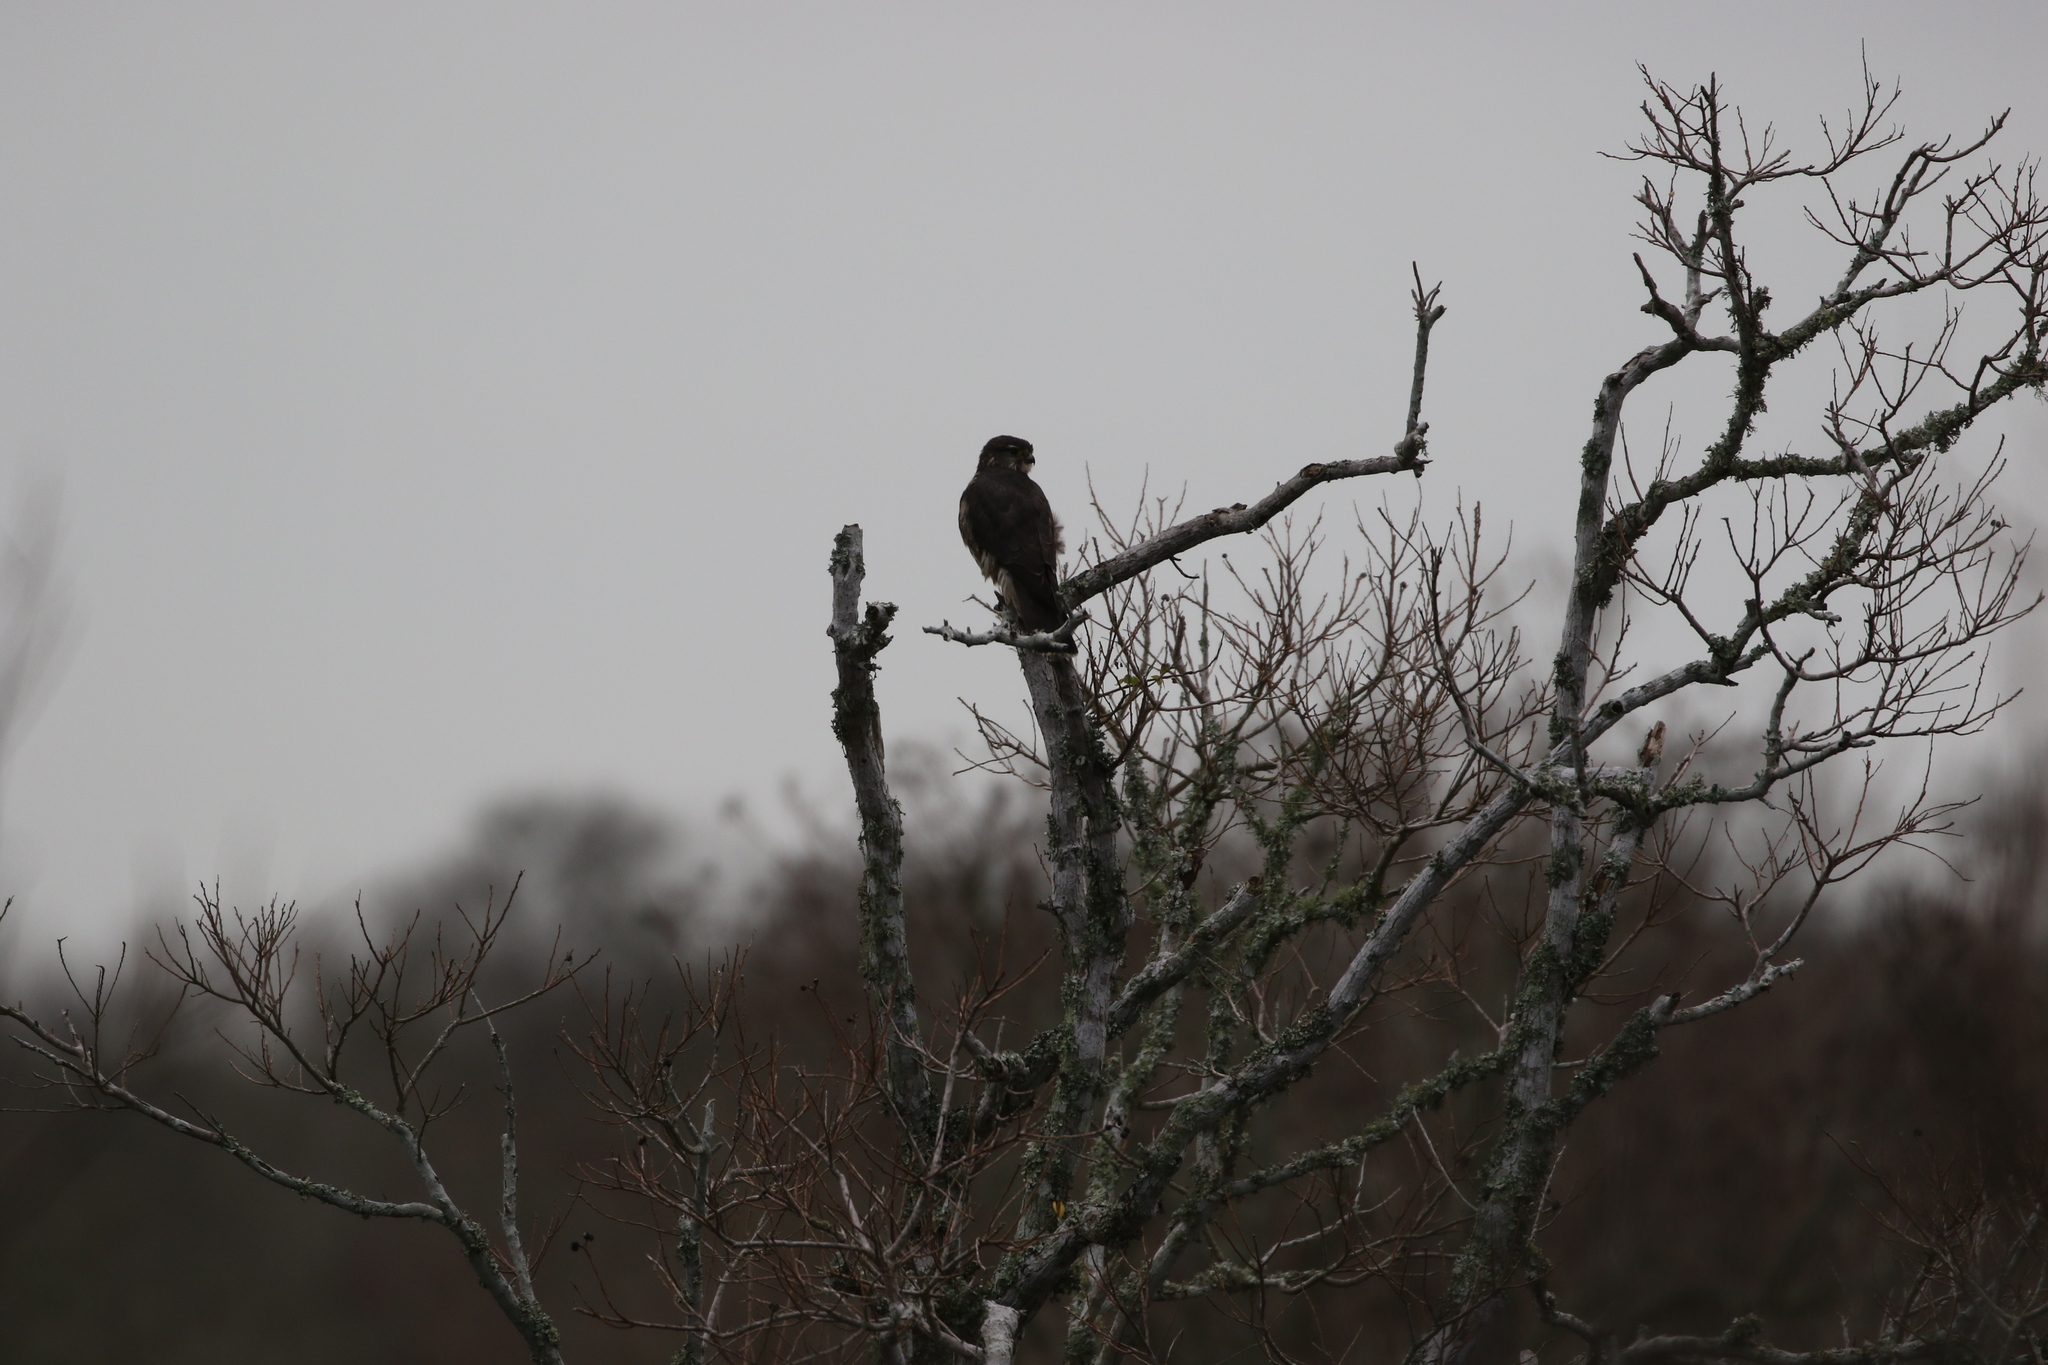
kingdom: Animalia
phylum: Chordata
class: Aves
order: Falconiformes
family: Falconidae
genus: Falco
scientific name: Falco columbarius
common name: Merlin
